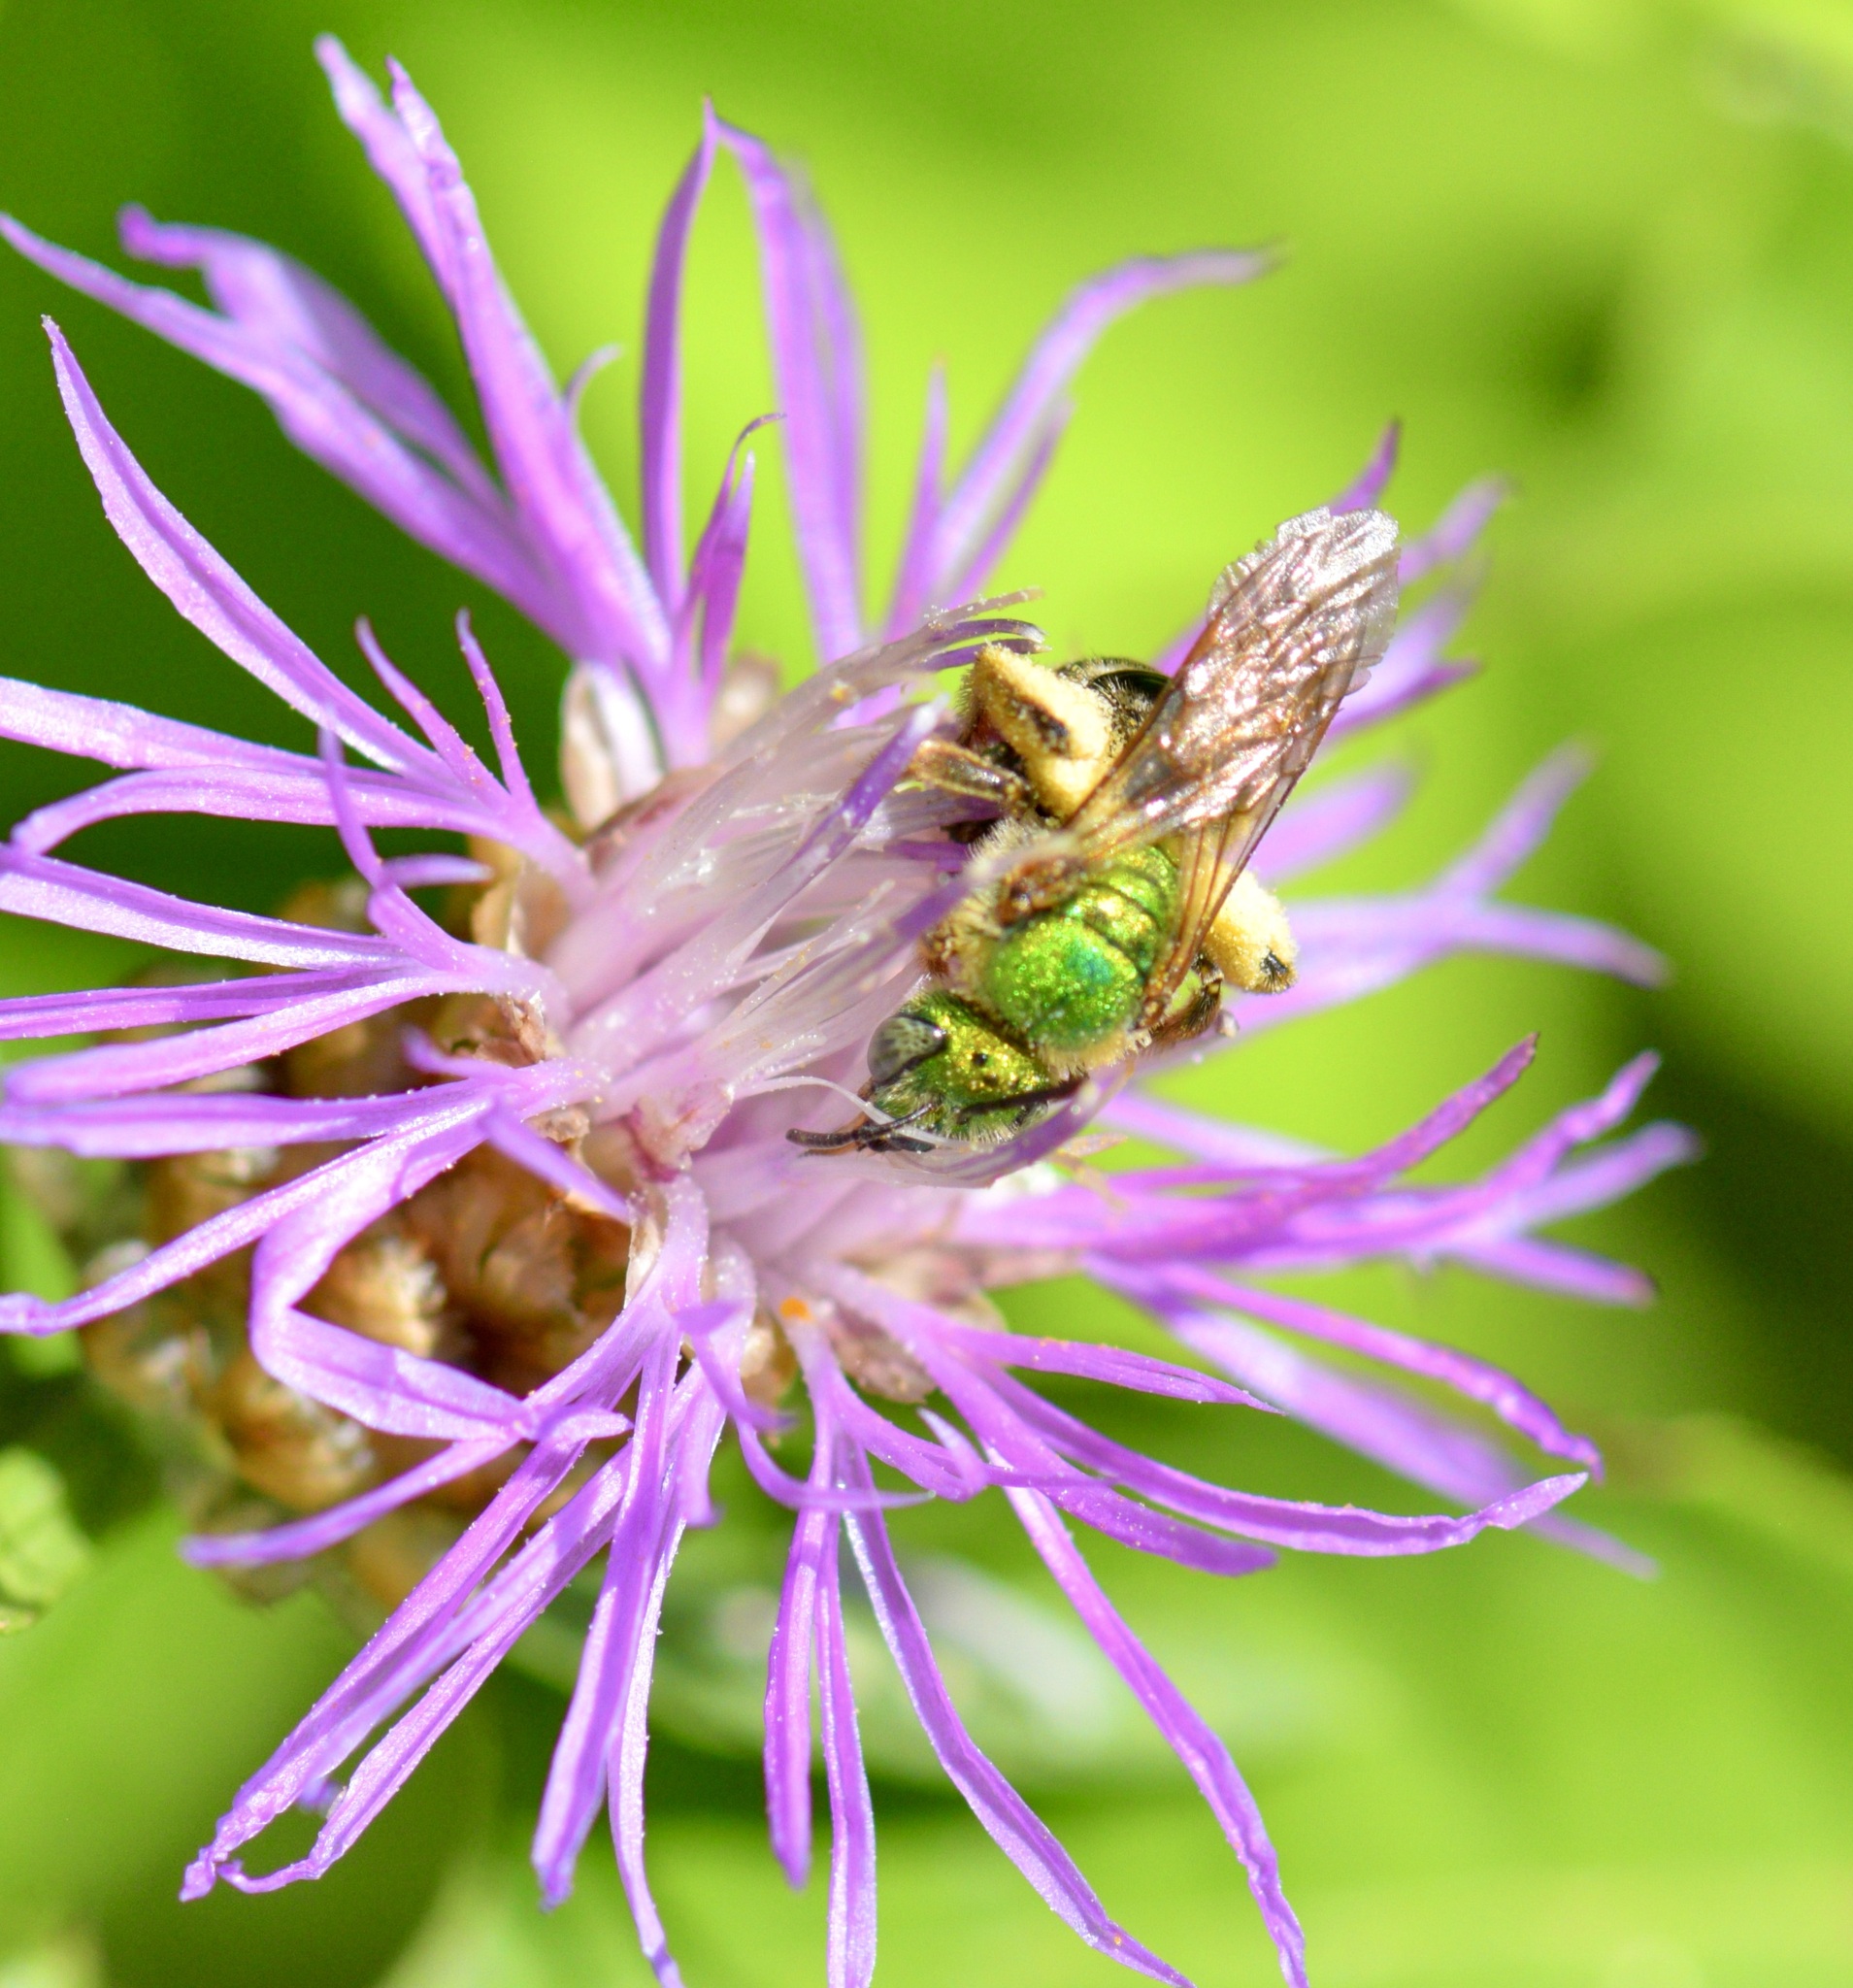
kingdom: Animalia
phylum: Arthropoda
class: Insecta
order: Hymenoptera
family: Halictidae
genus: Agapostemon
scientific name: Agapostemon virescens
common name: Bicolored striped sweat bee
